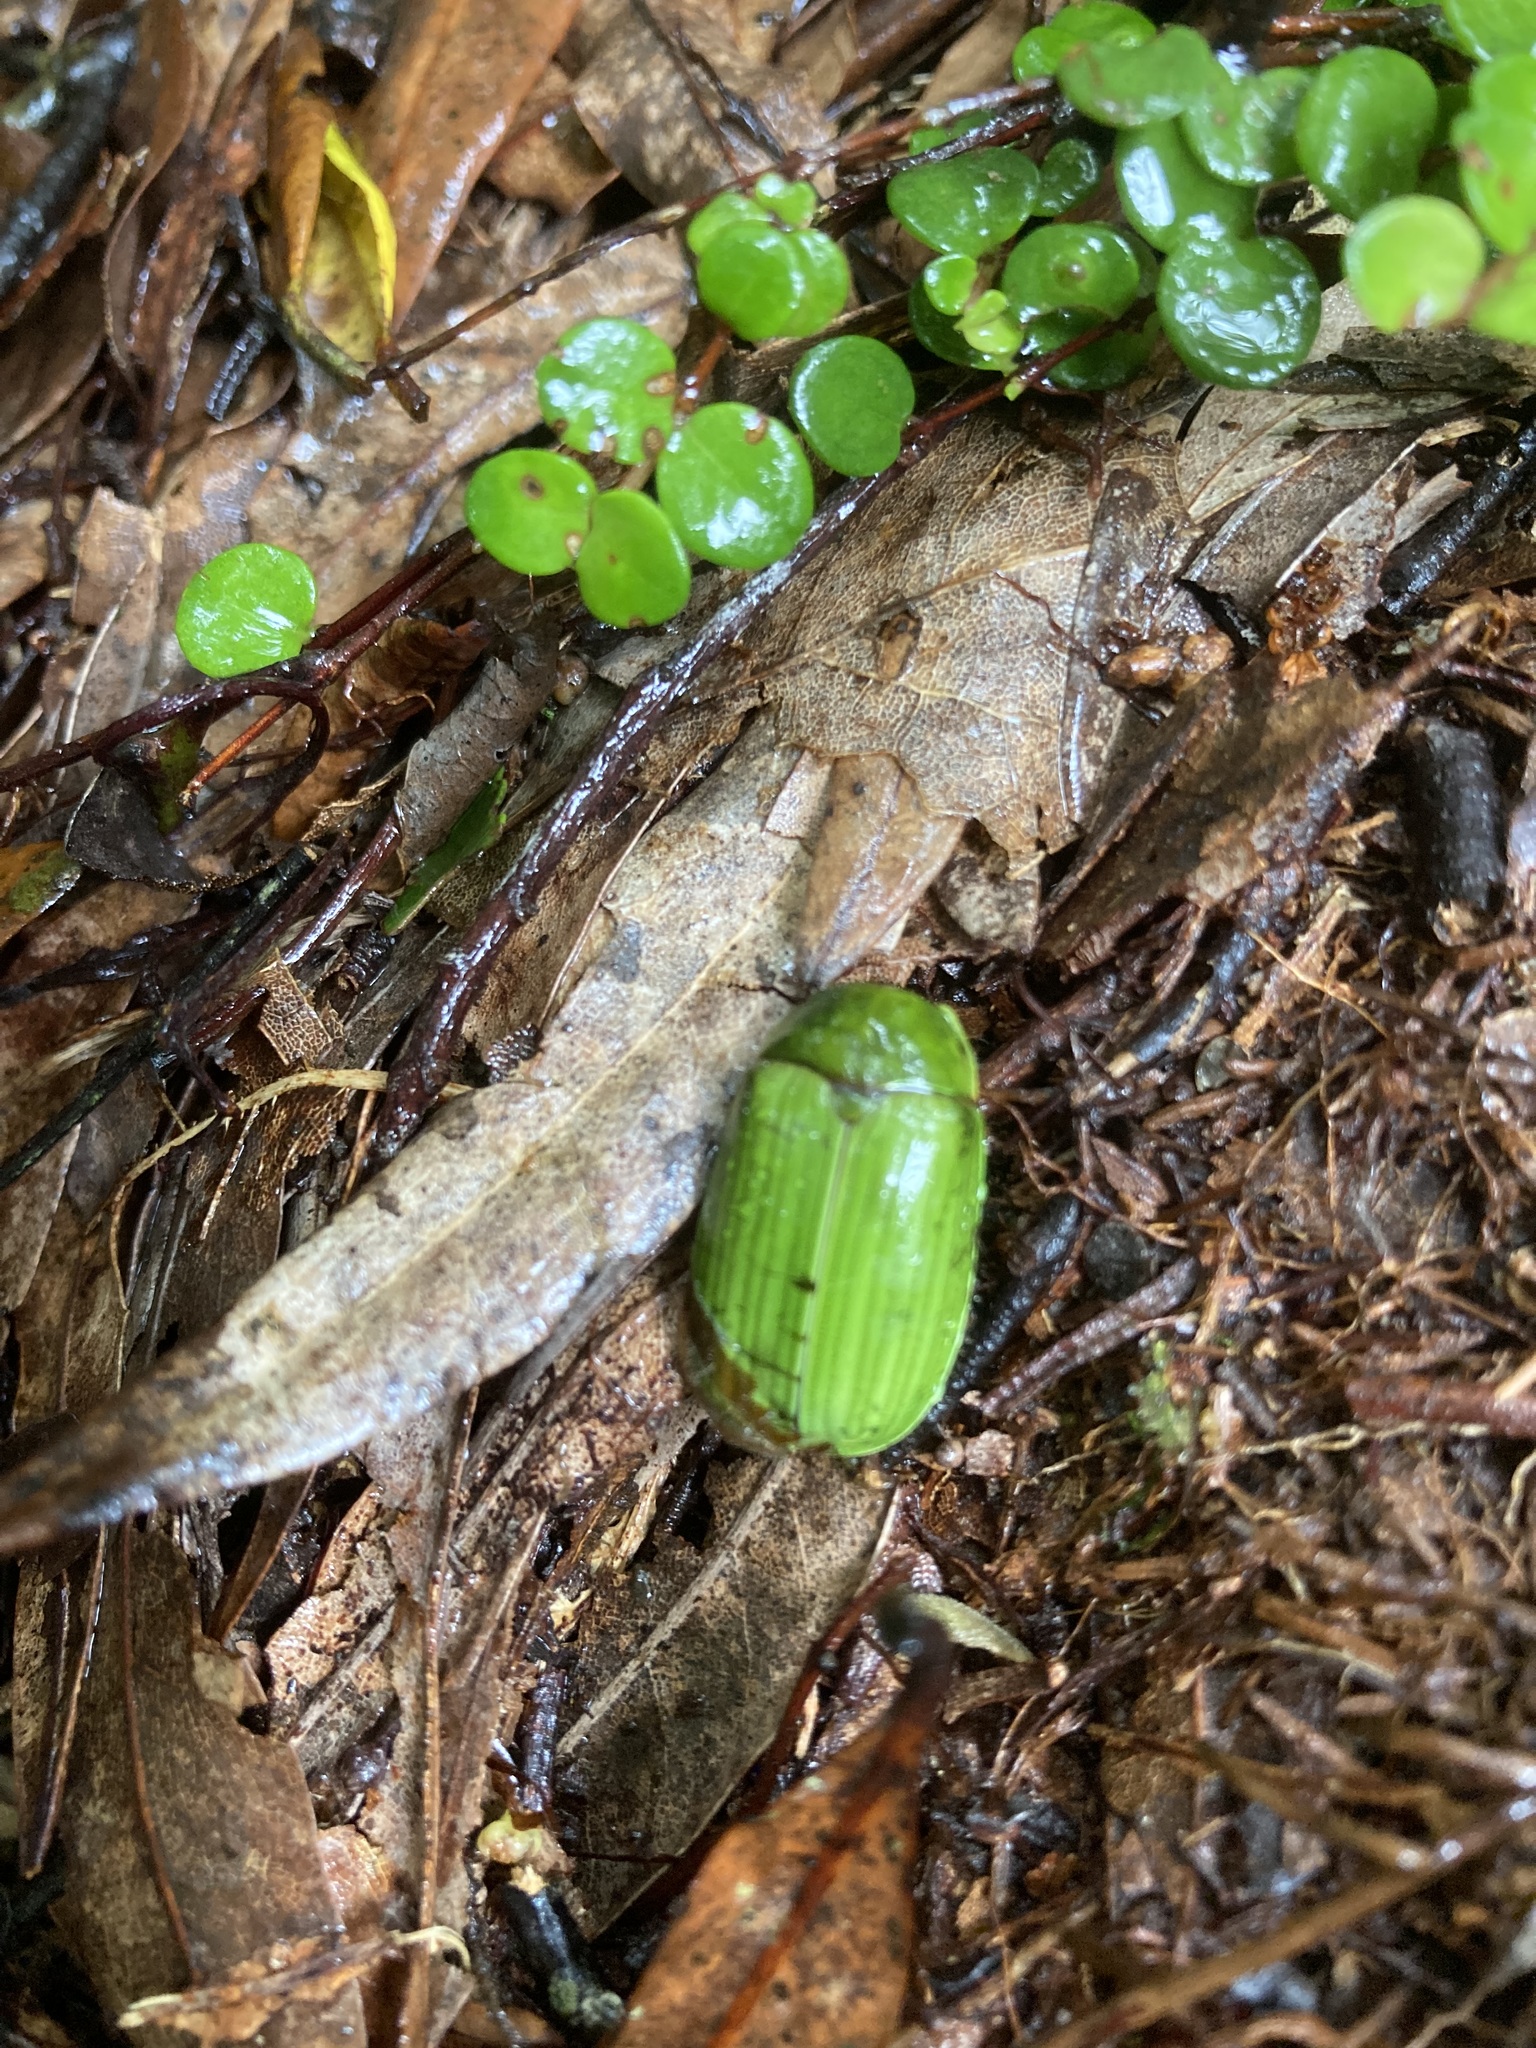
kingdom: Animalia
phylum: Arthropoda
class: Insecta
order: Coleoptera
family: Scarabaeidae
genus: Stethaspis
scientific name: Stethaspis longicornis
